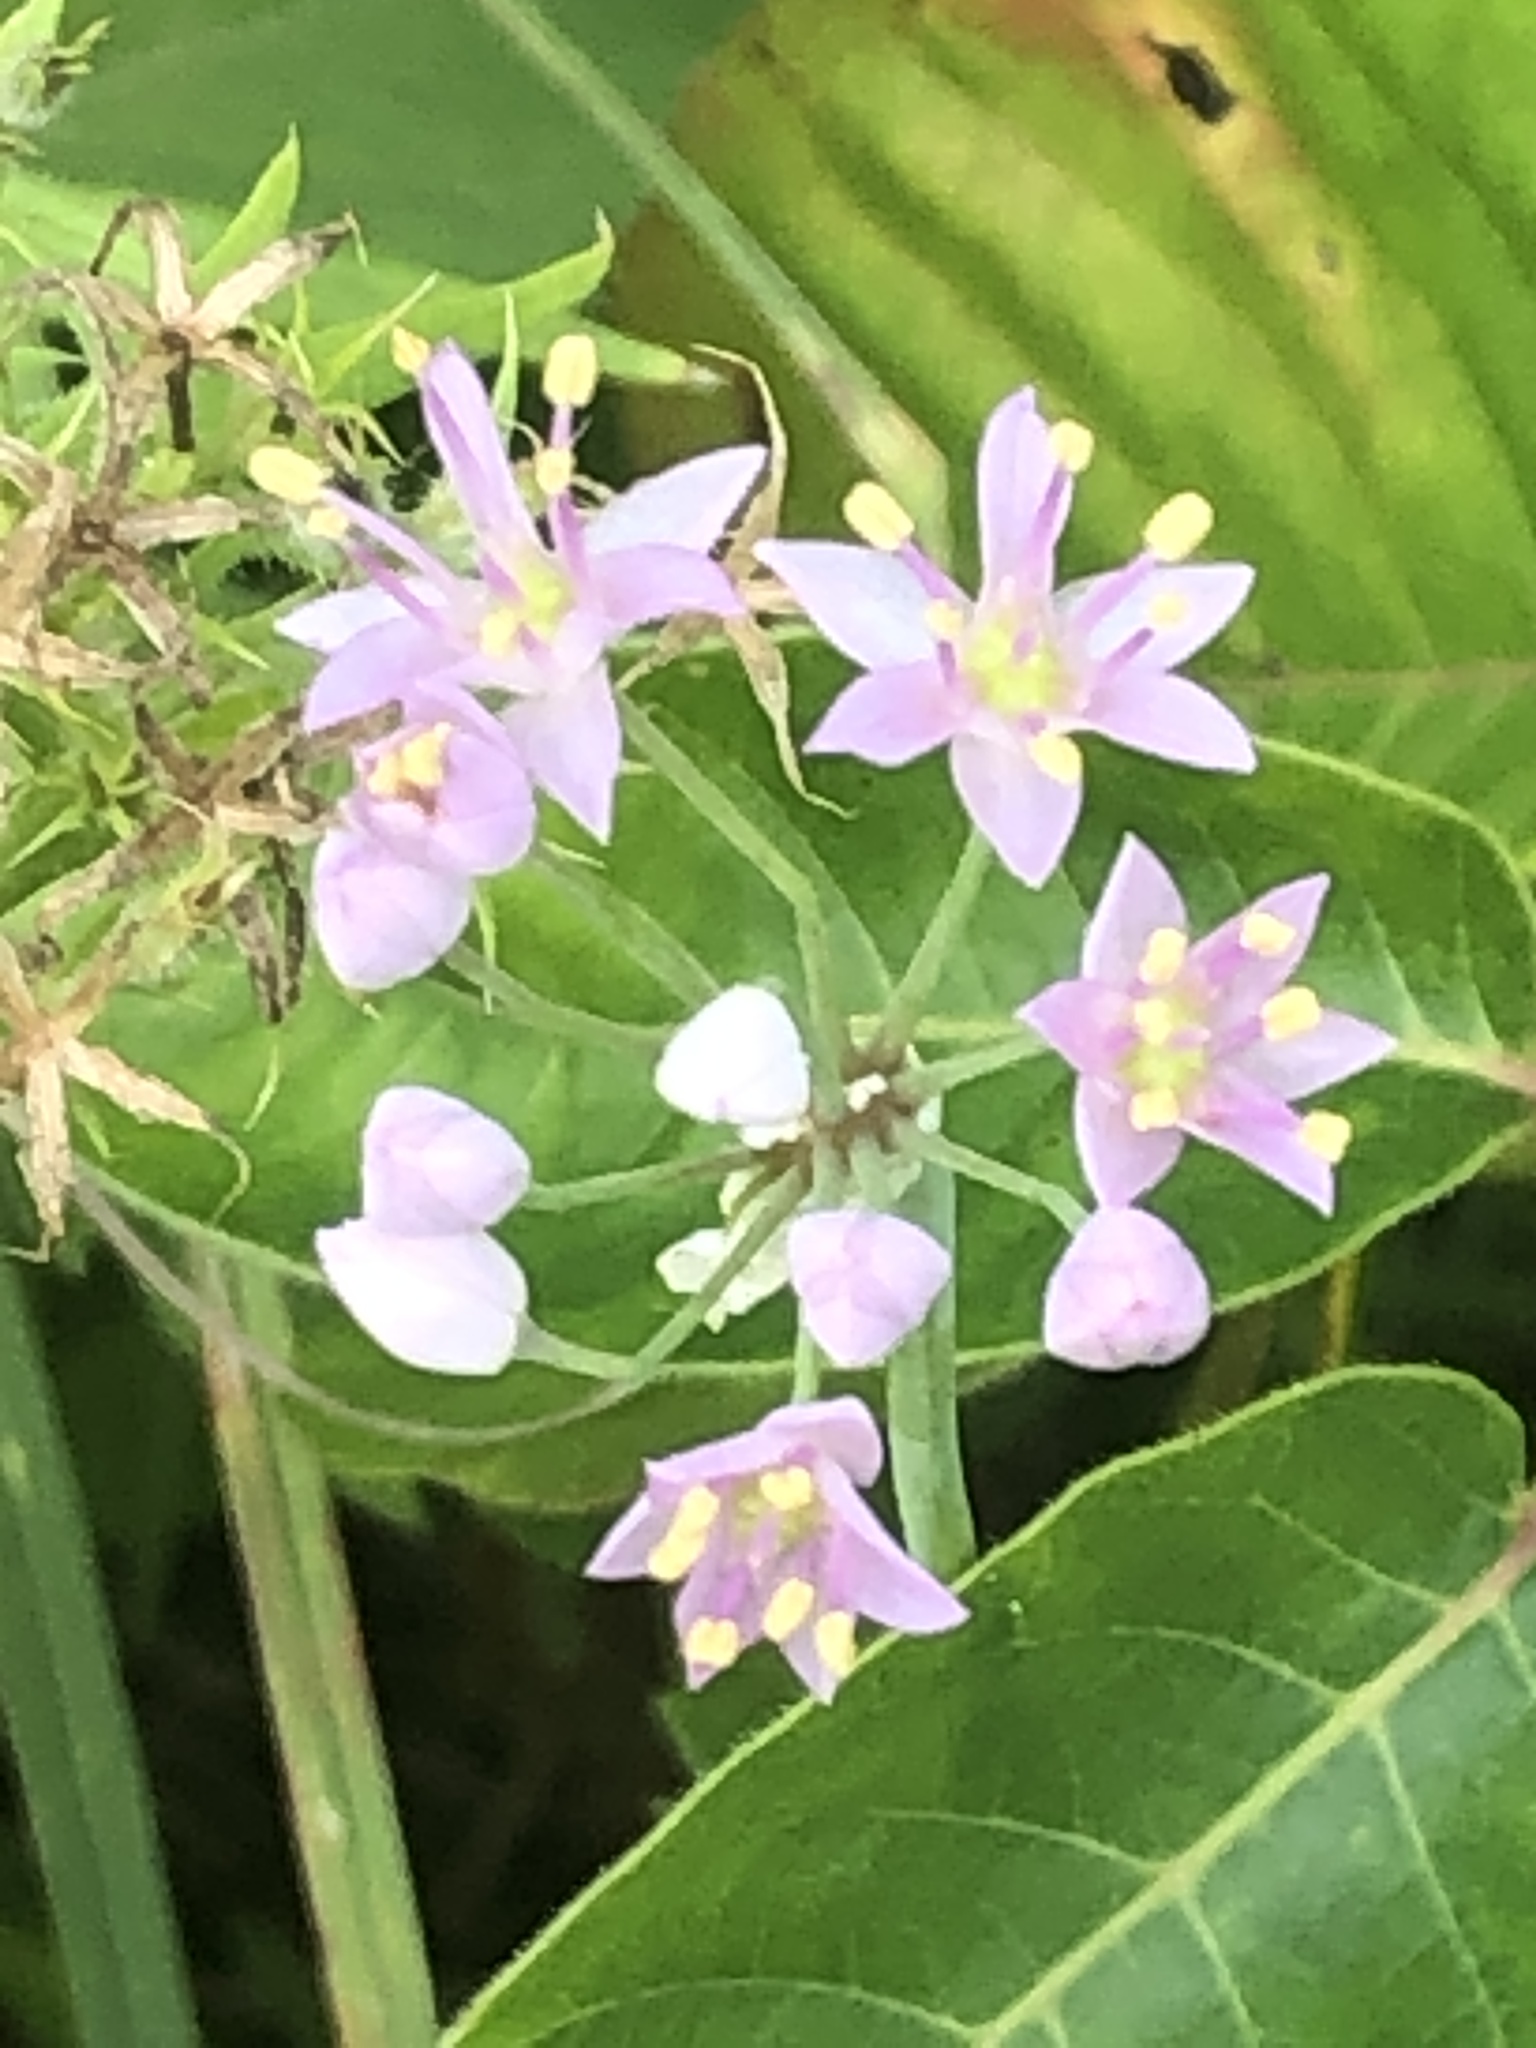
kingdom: Plantae
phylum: Tracheophyta
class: Liliopsida
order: Asparagales
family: Amaryllidaceae
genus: Allium
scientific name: Allium stellatum
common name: Autumn onion
